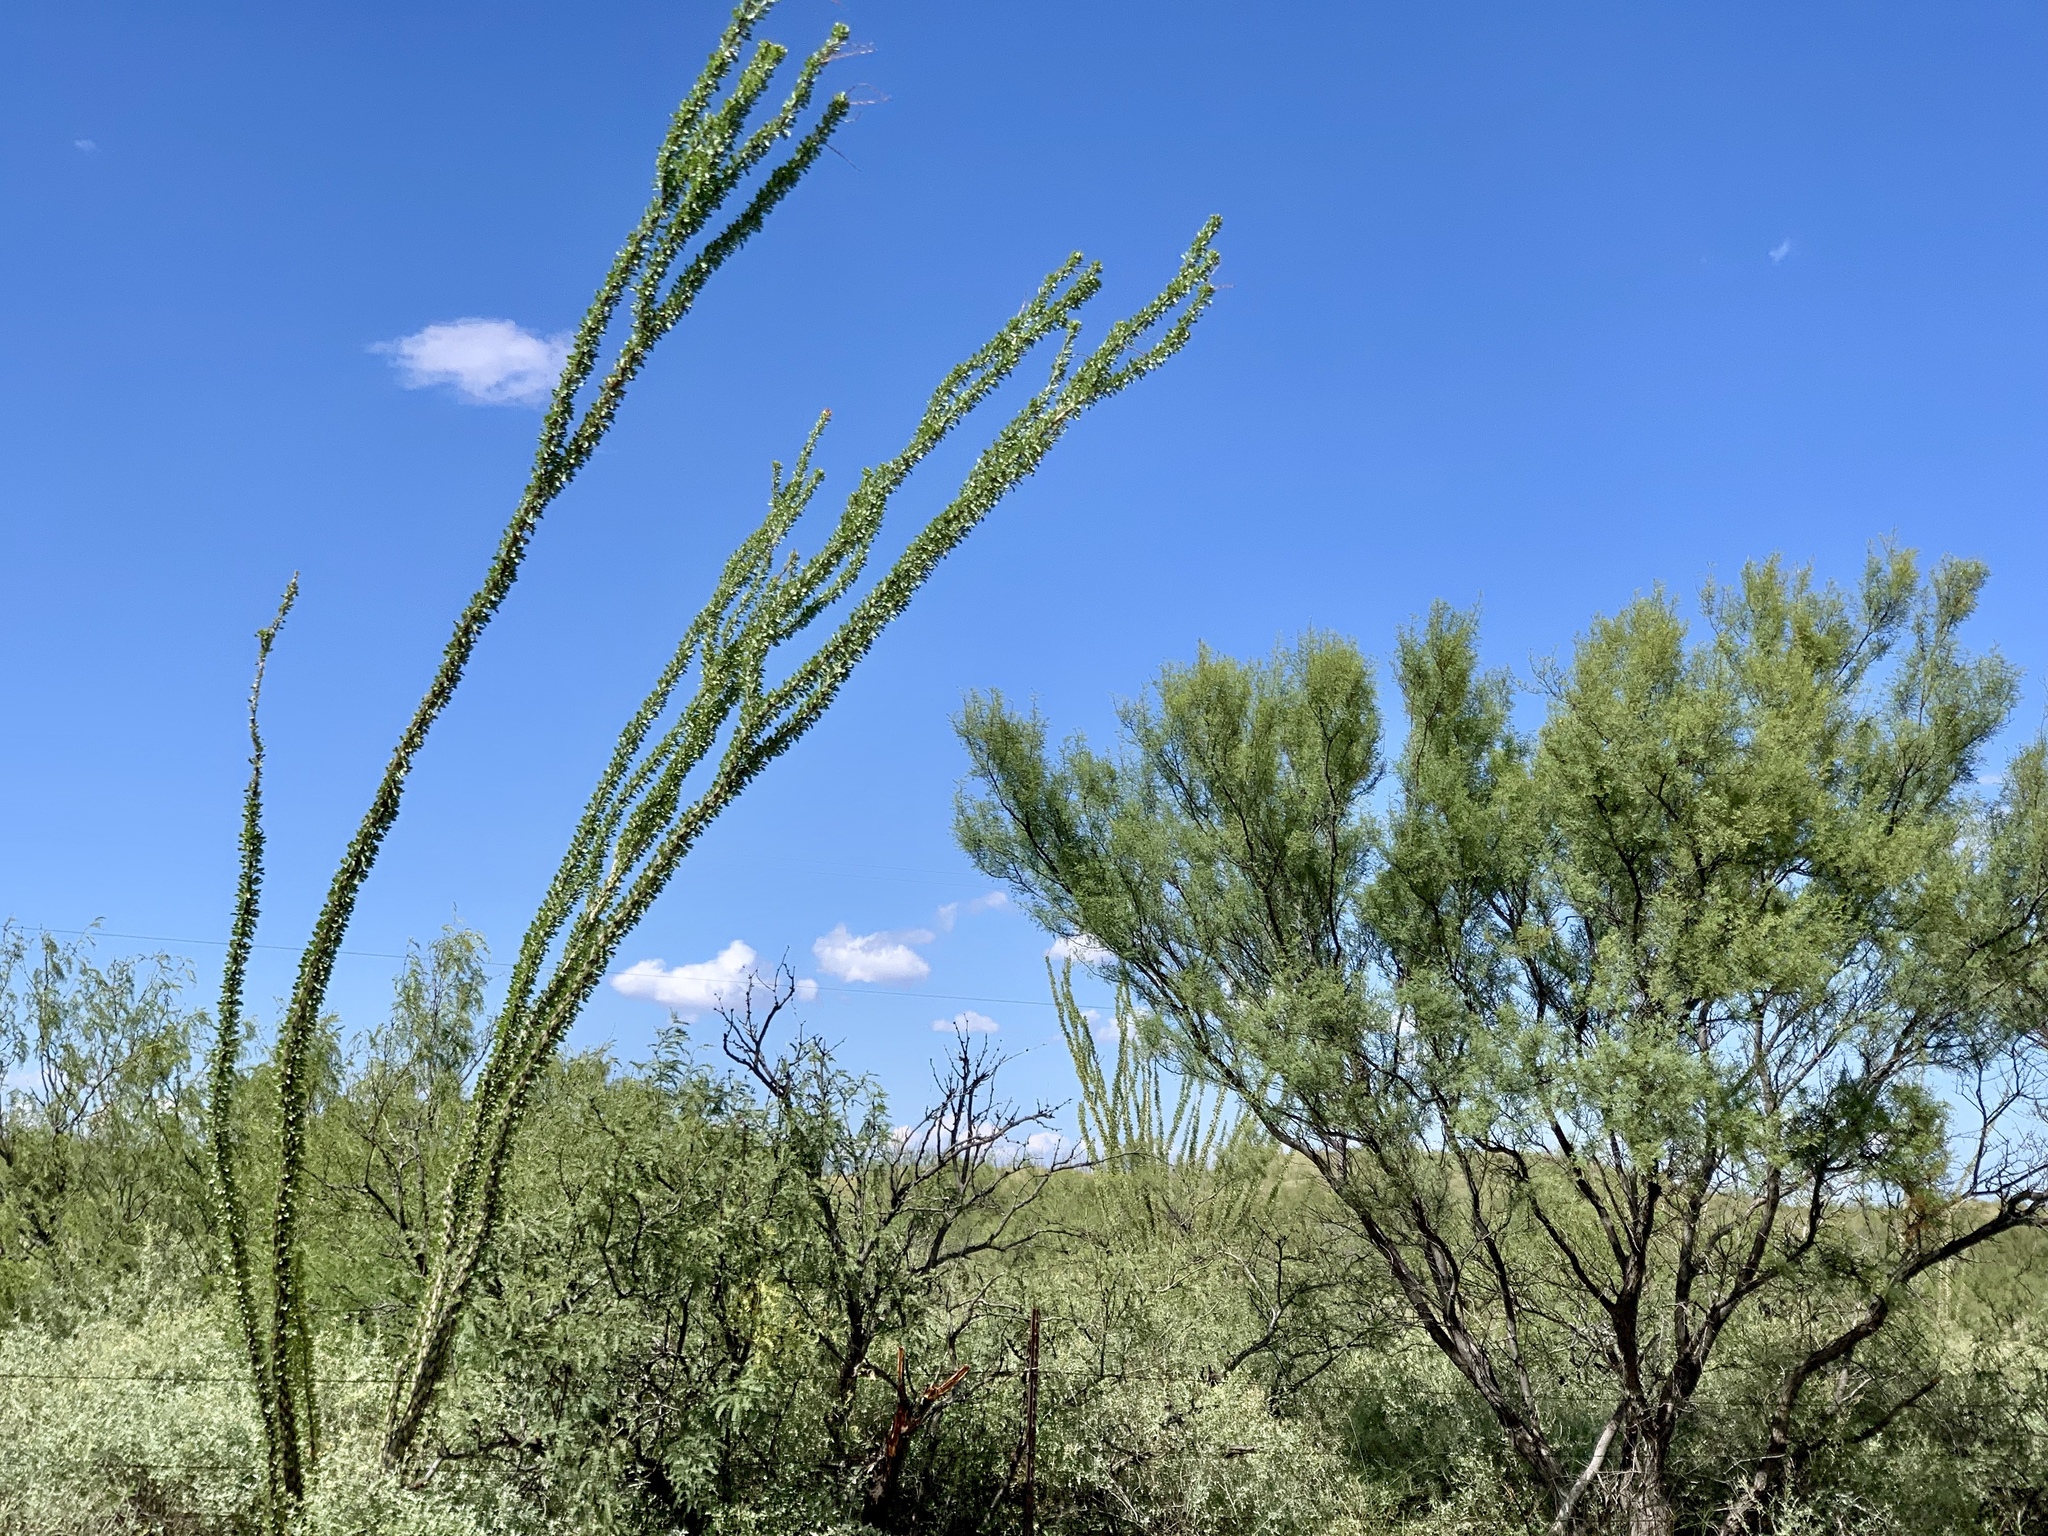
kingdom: Plantae
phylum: Tracheophyta
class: Magnoliopsida
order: Ericales
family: Fouquieriaceae
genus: Fouquieria
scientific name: Fouquieria splendens
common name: Vine-cactus
